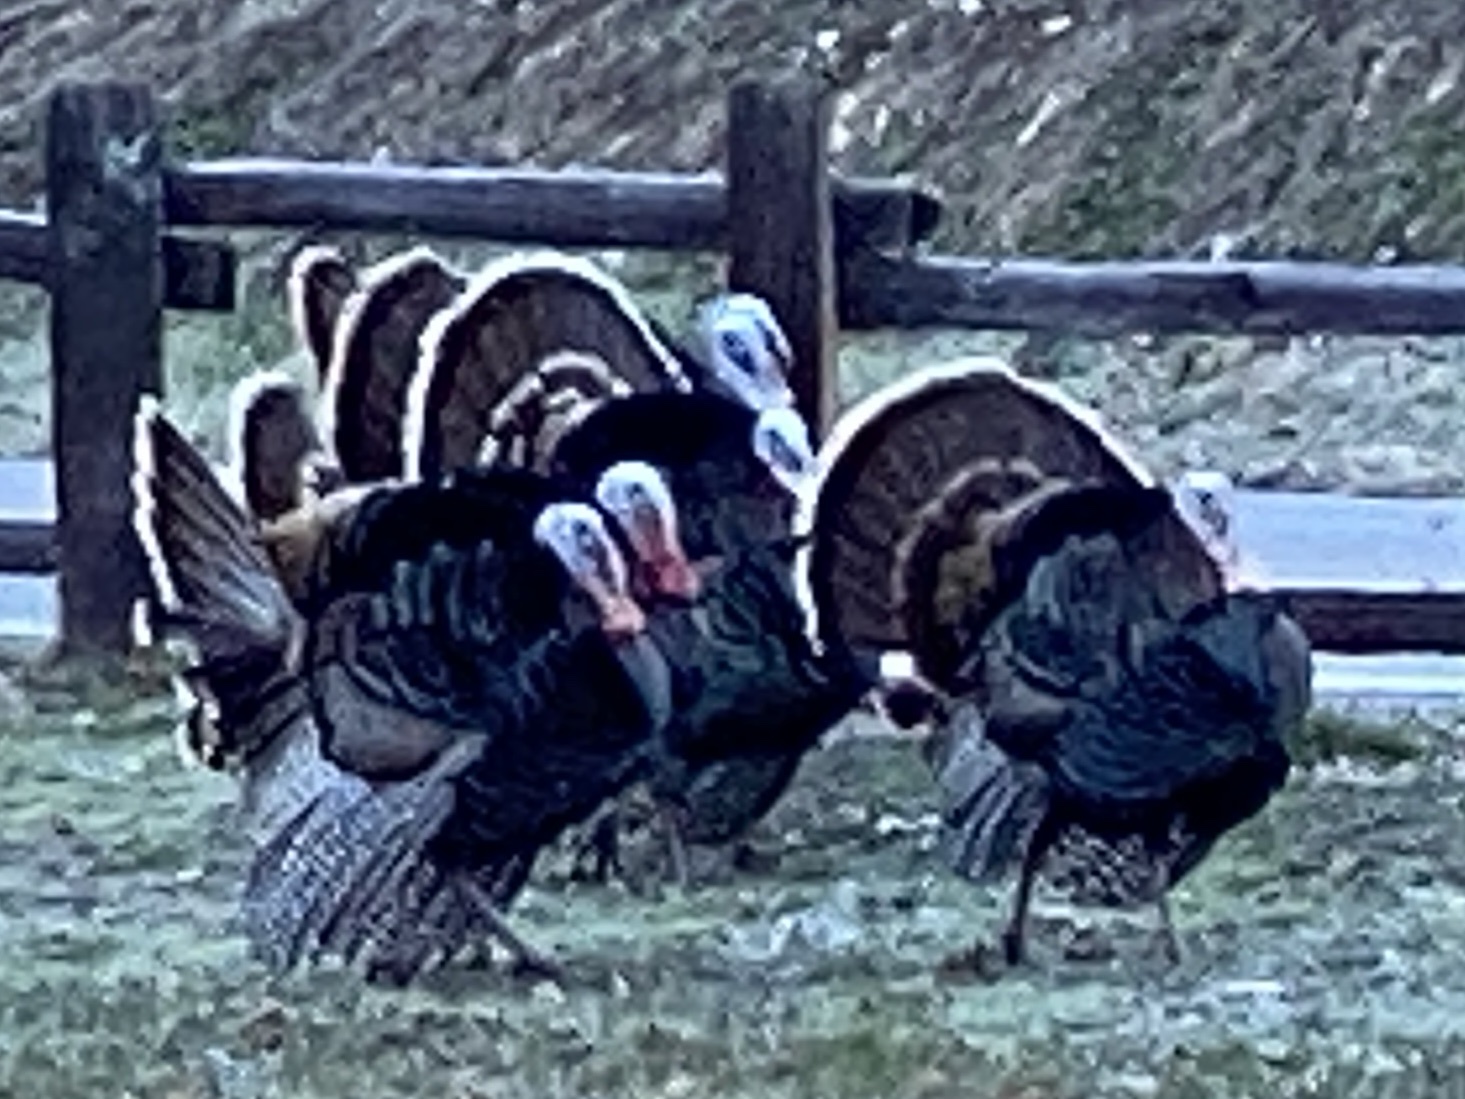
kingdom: Animalia
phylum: Chordata
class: Aves
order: Galliformes
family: Phasianidae
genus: Meleagris
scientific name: Meleagris gallopavo
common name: Wild turkey
